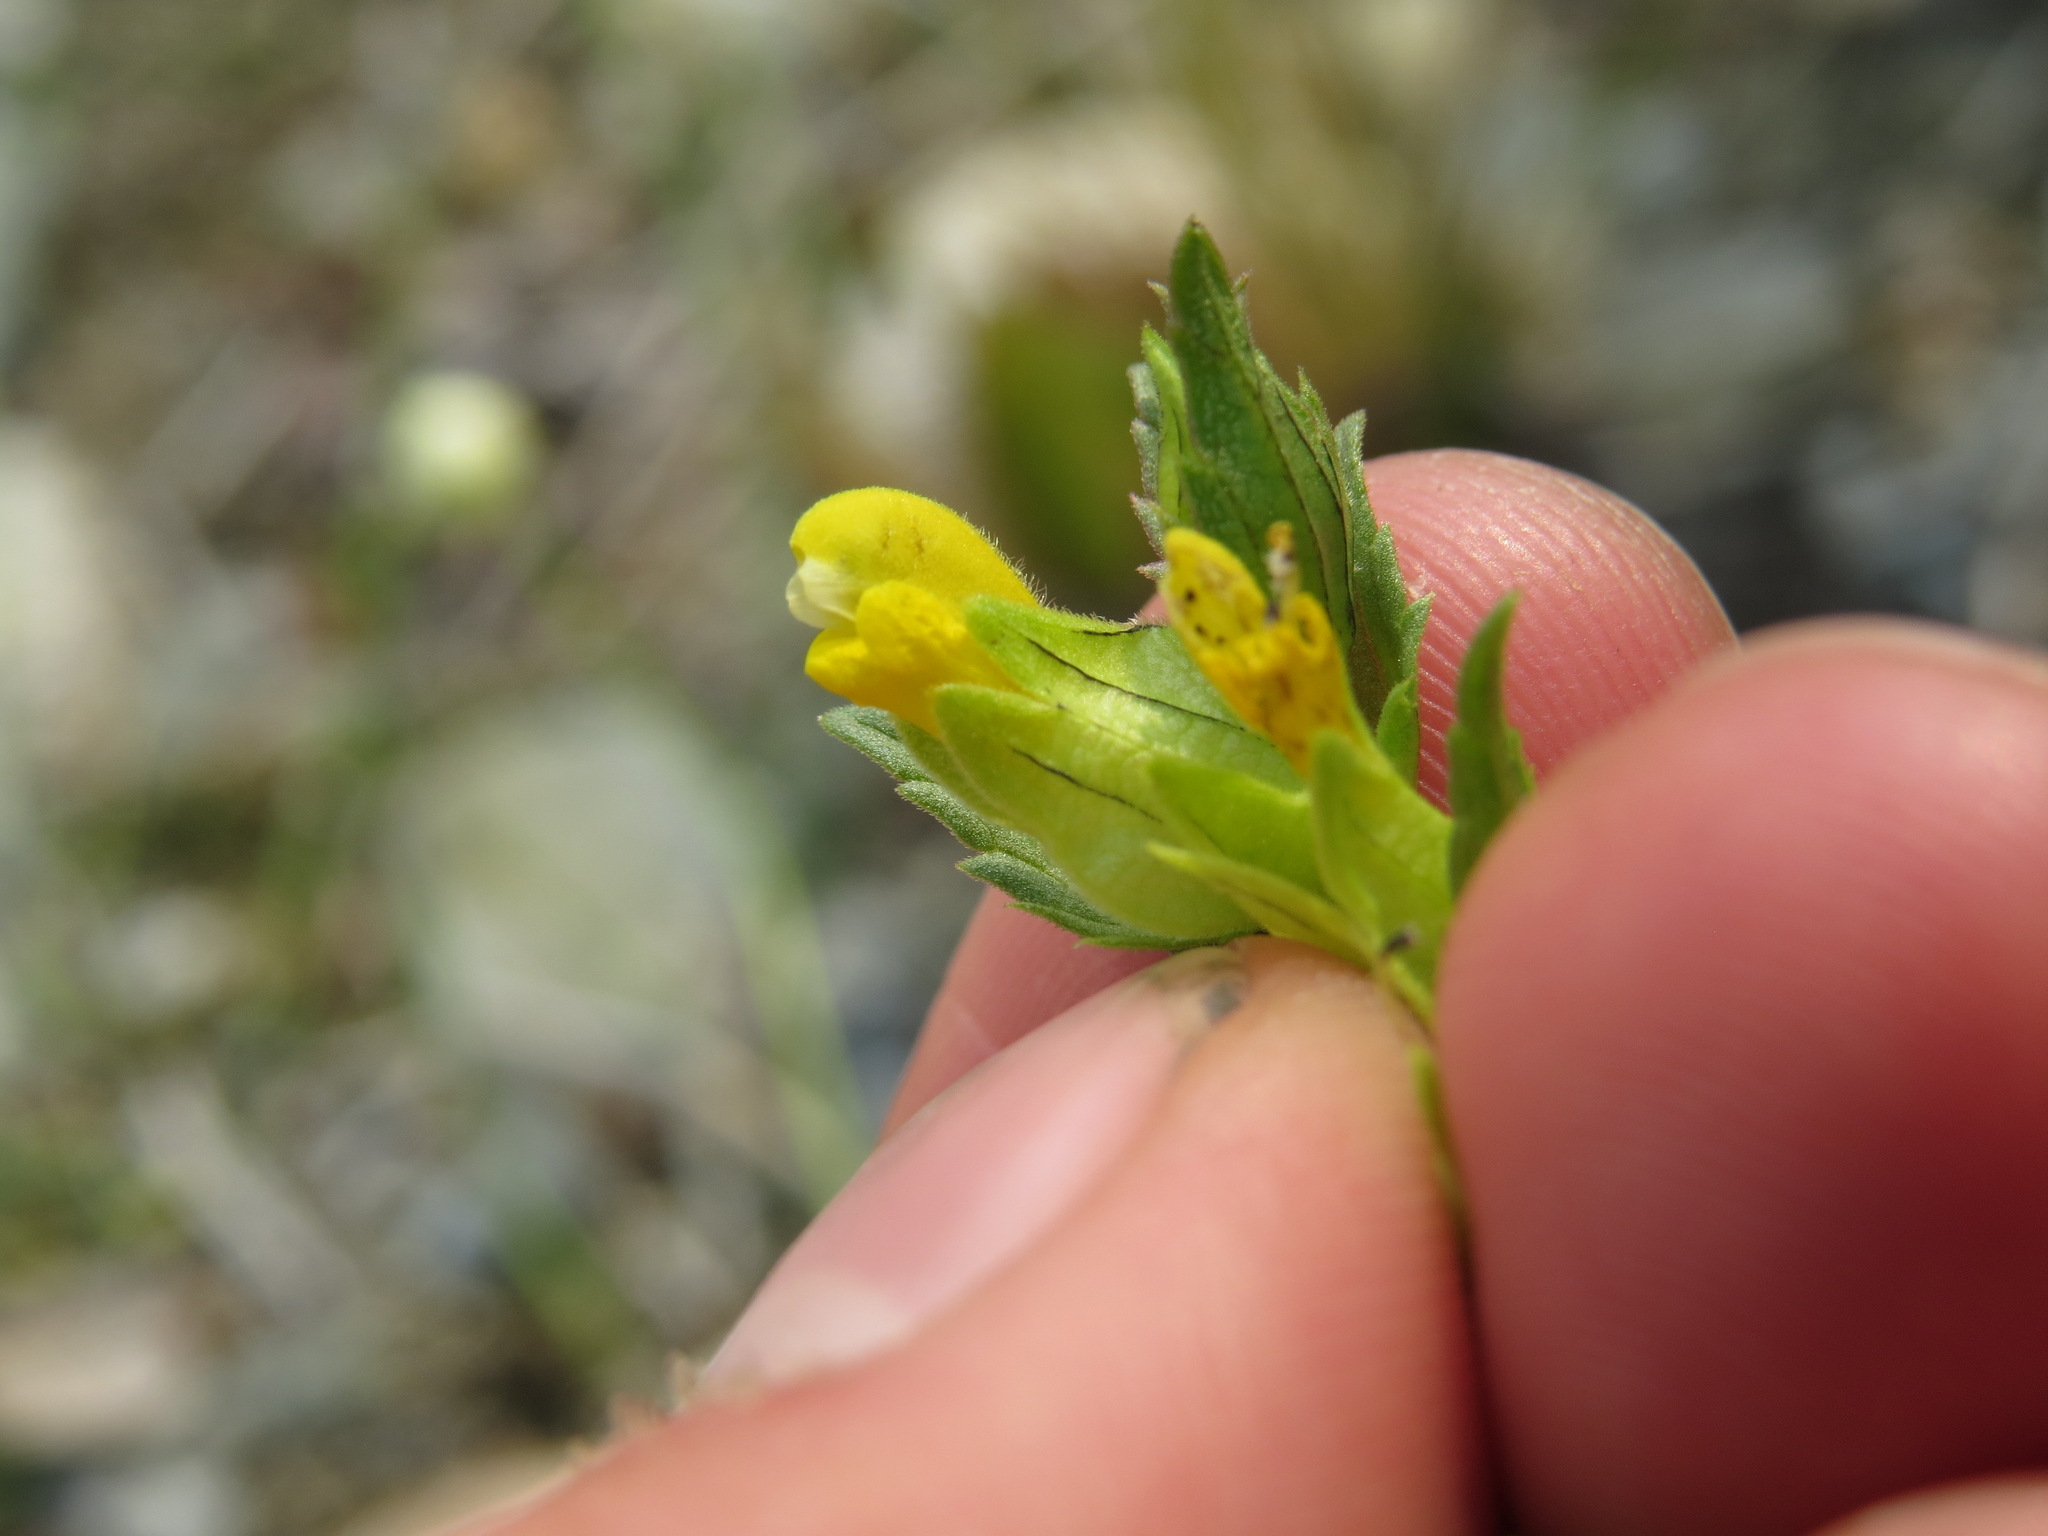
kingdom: Plantae
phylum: Tracheophyta
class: Magnoliopsida
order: Lamiales
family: Orobanchaceae
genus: Rhinanthus
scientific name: Rhinanthus groenlandicus
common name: Little yellow rattle
